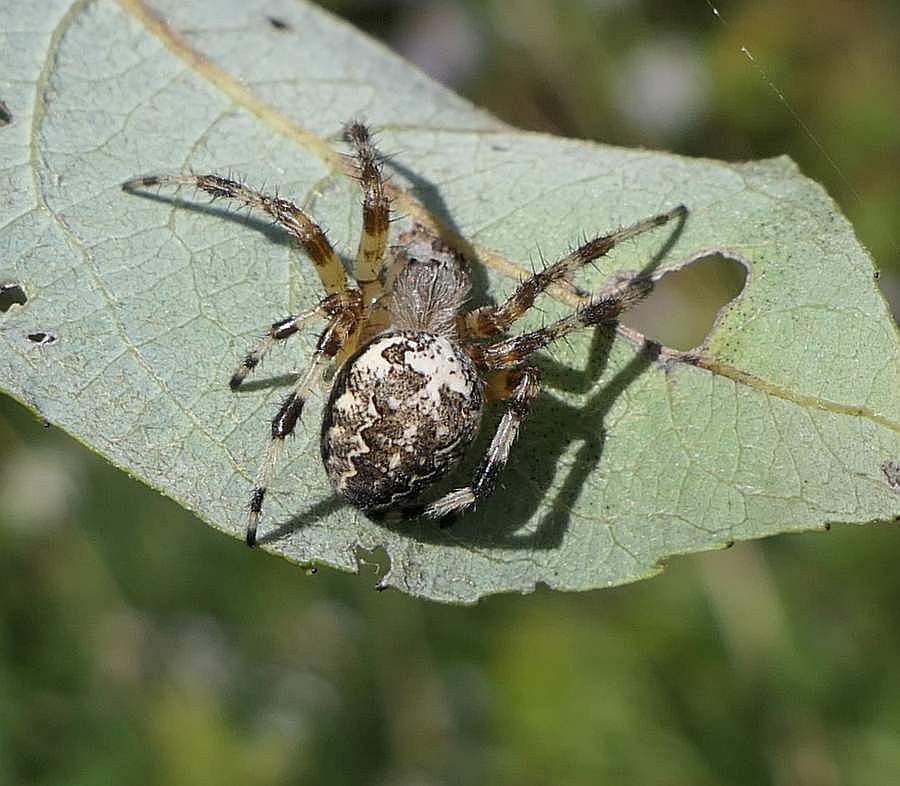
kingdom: Animalia
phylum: Arthropoda
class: Arachnida
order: Araneae
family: Araneidae
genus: Araneus
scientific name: Araneus marmoreus
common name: Marbled orbweaver
